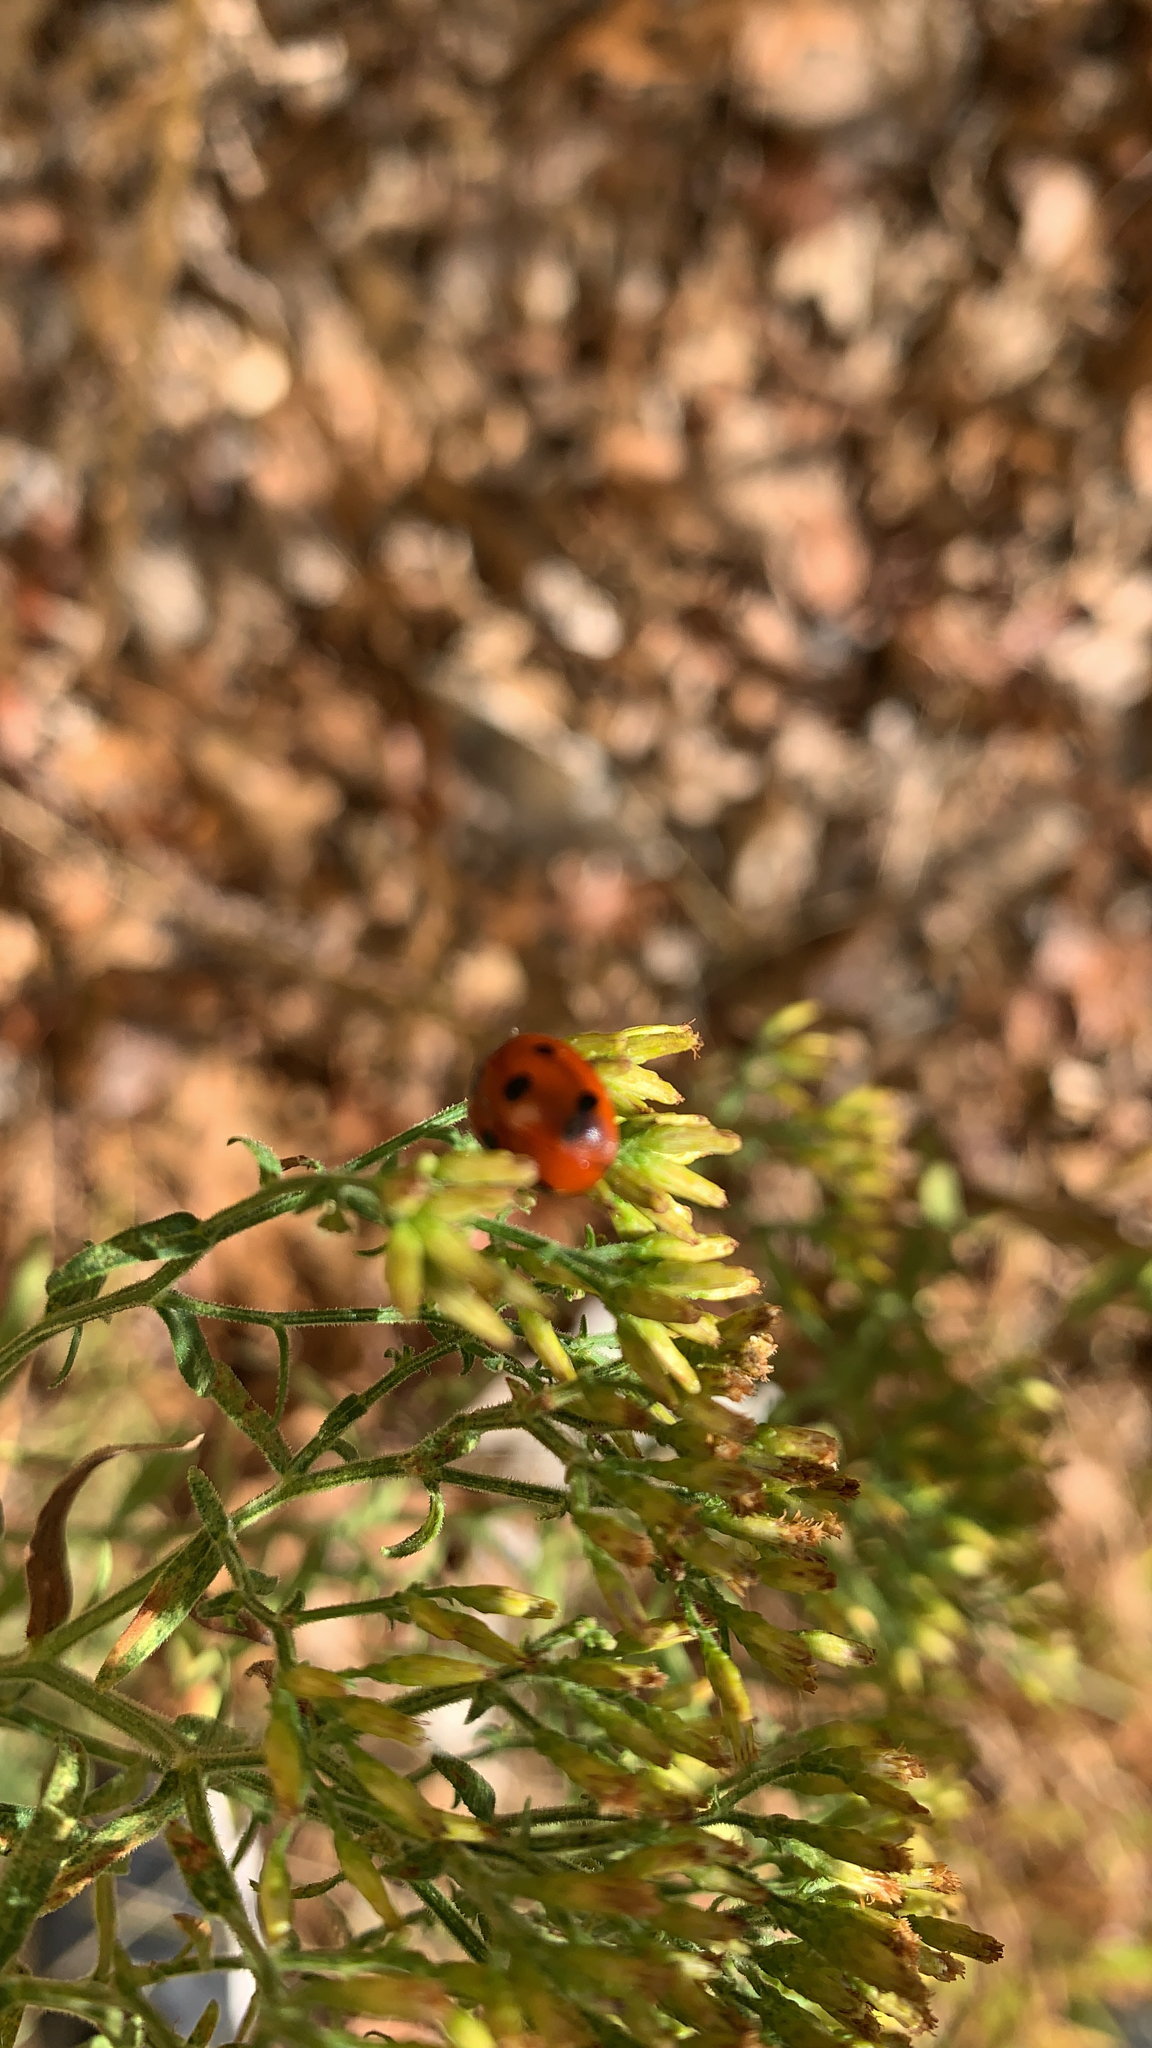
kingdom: Animalia
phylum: Arthropoda
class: Insecta
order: Coleoptera
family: Coccinellidae
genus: Coccinella
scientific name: Coccinella septempunctata
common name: Sevenspotted lady beetle
